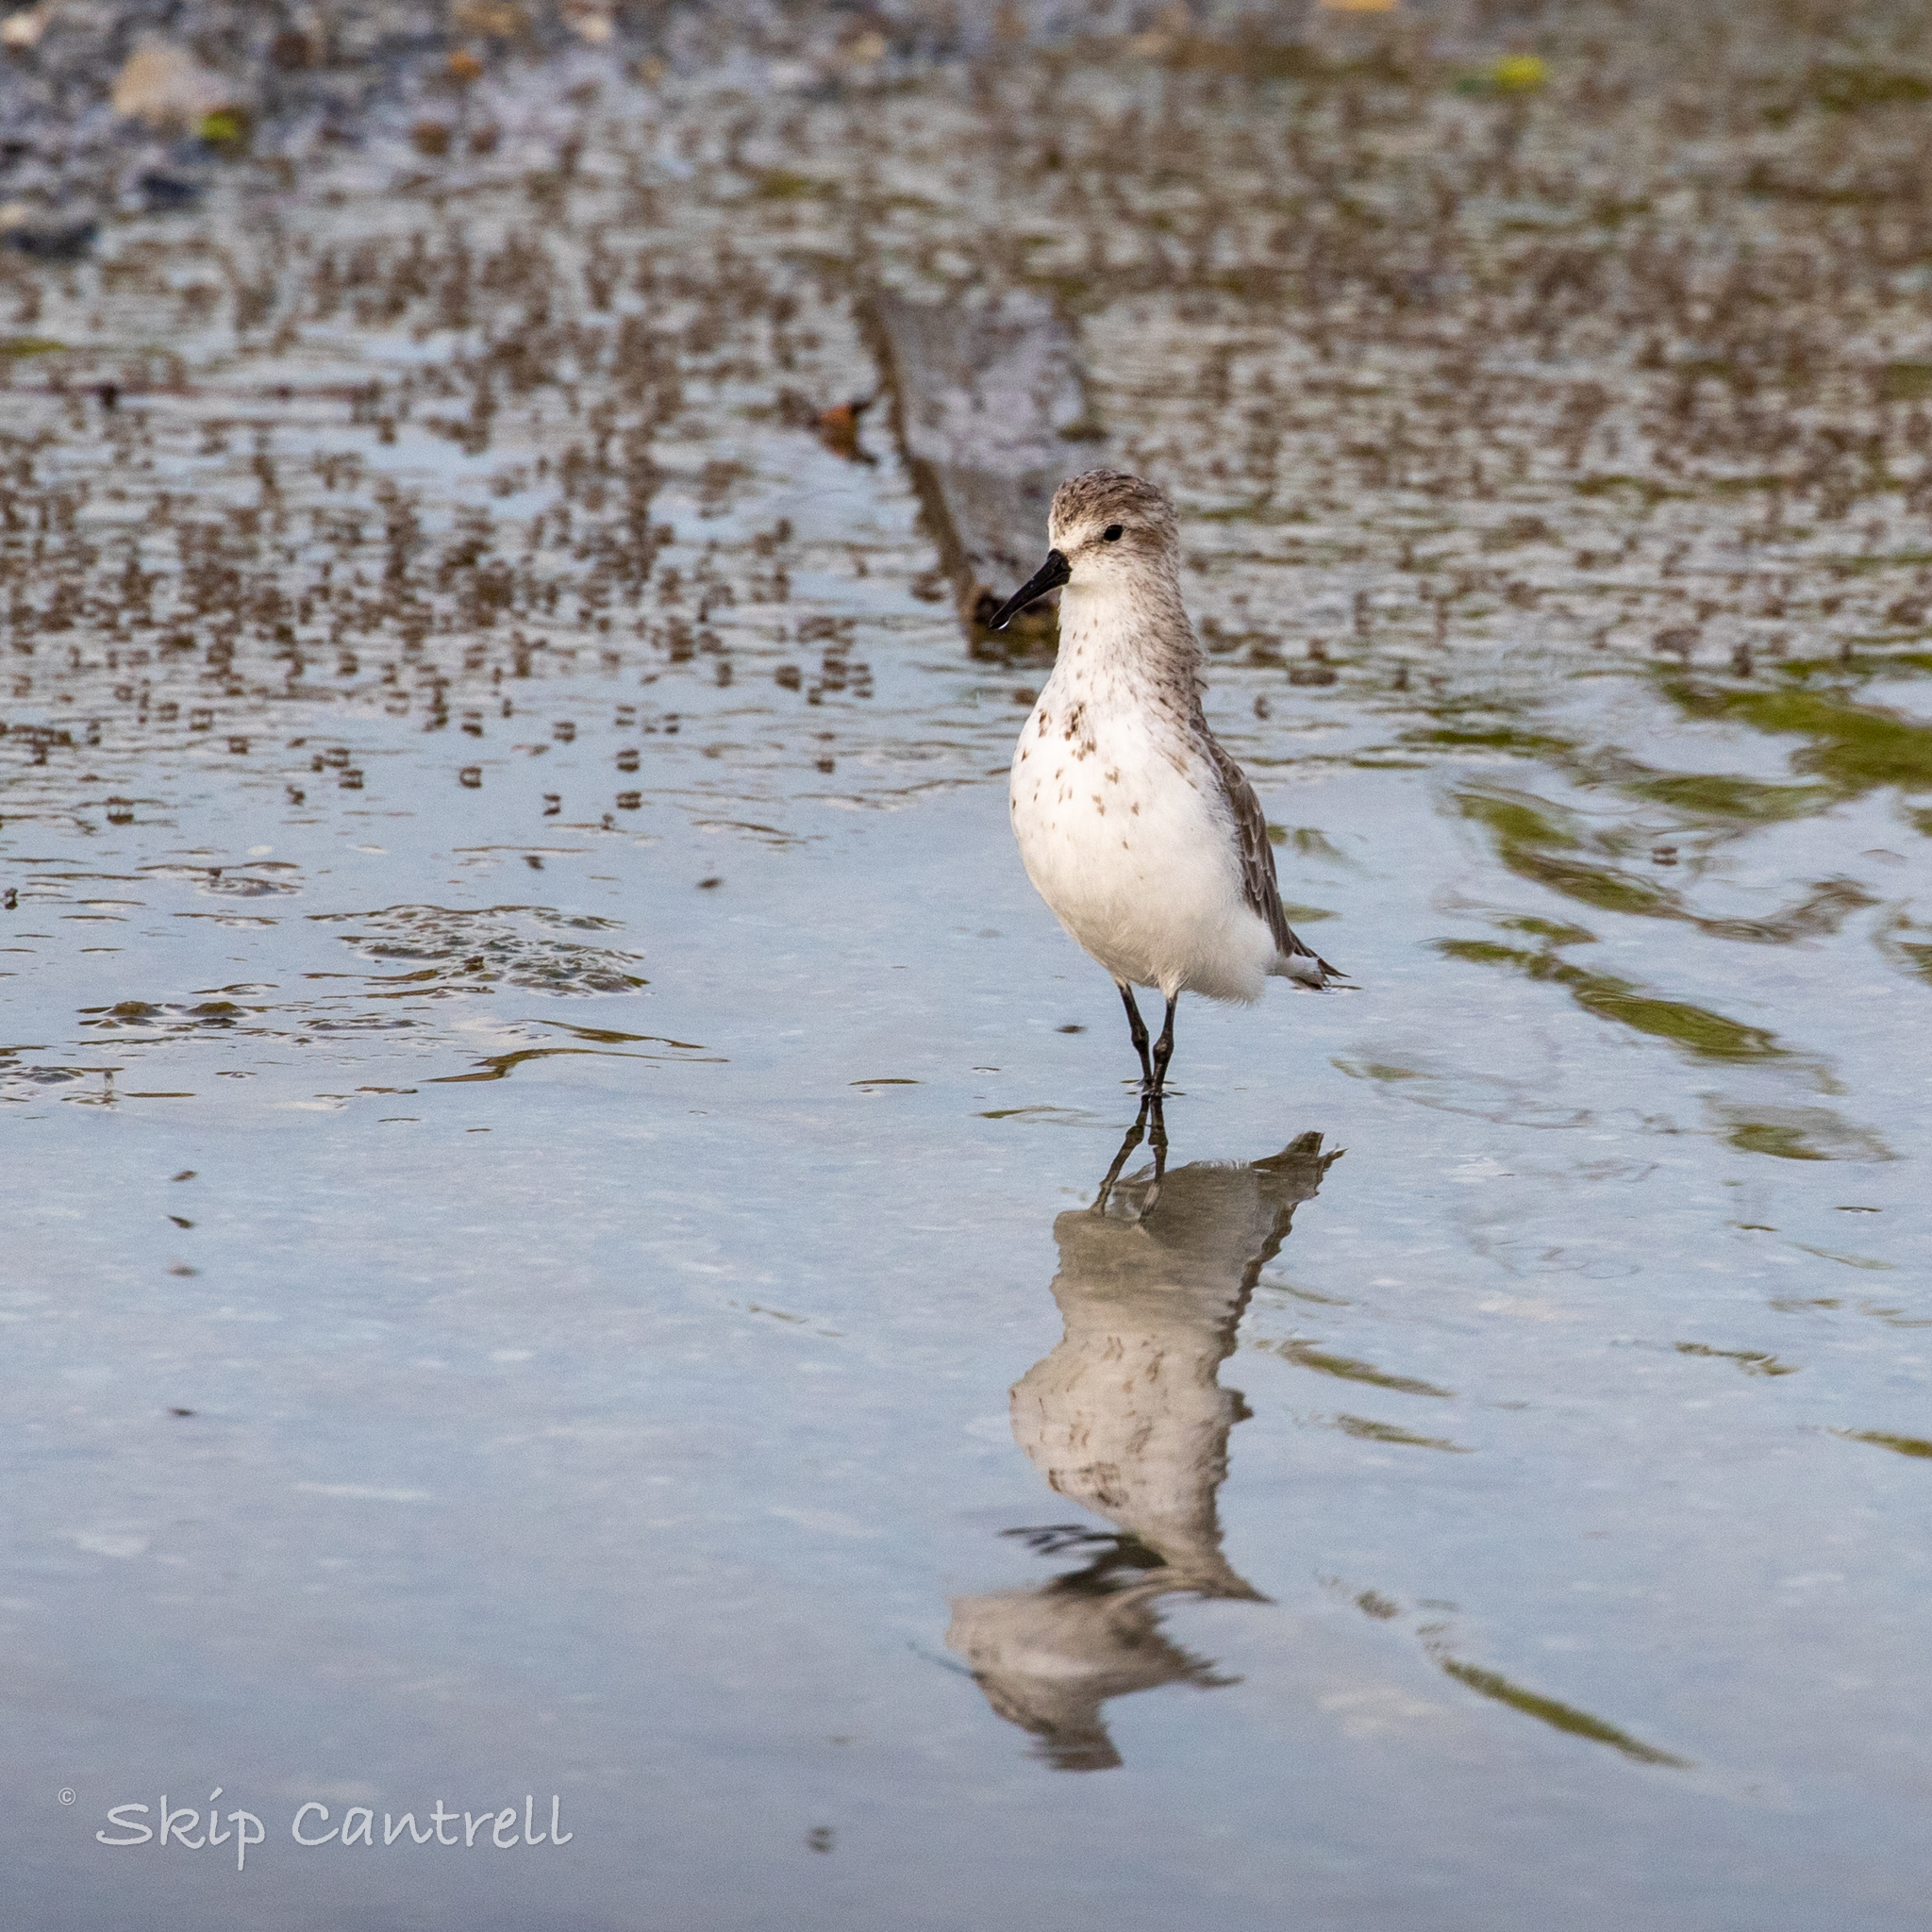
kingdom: Animalia
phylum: Chordata
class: Aves
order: Charadriiformes
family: Scolopacidae
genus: Calidris
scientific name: Calidris mauri
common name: Western sandpiper
